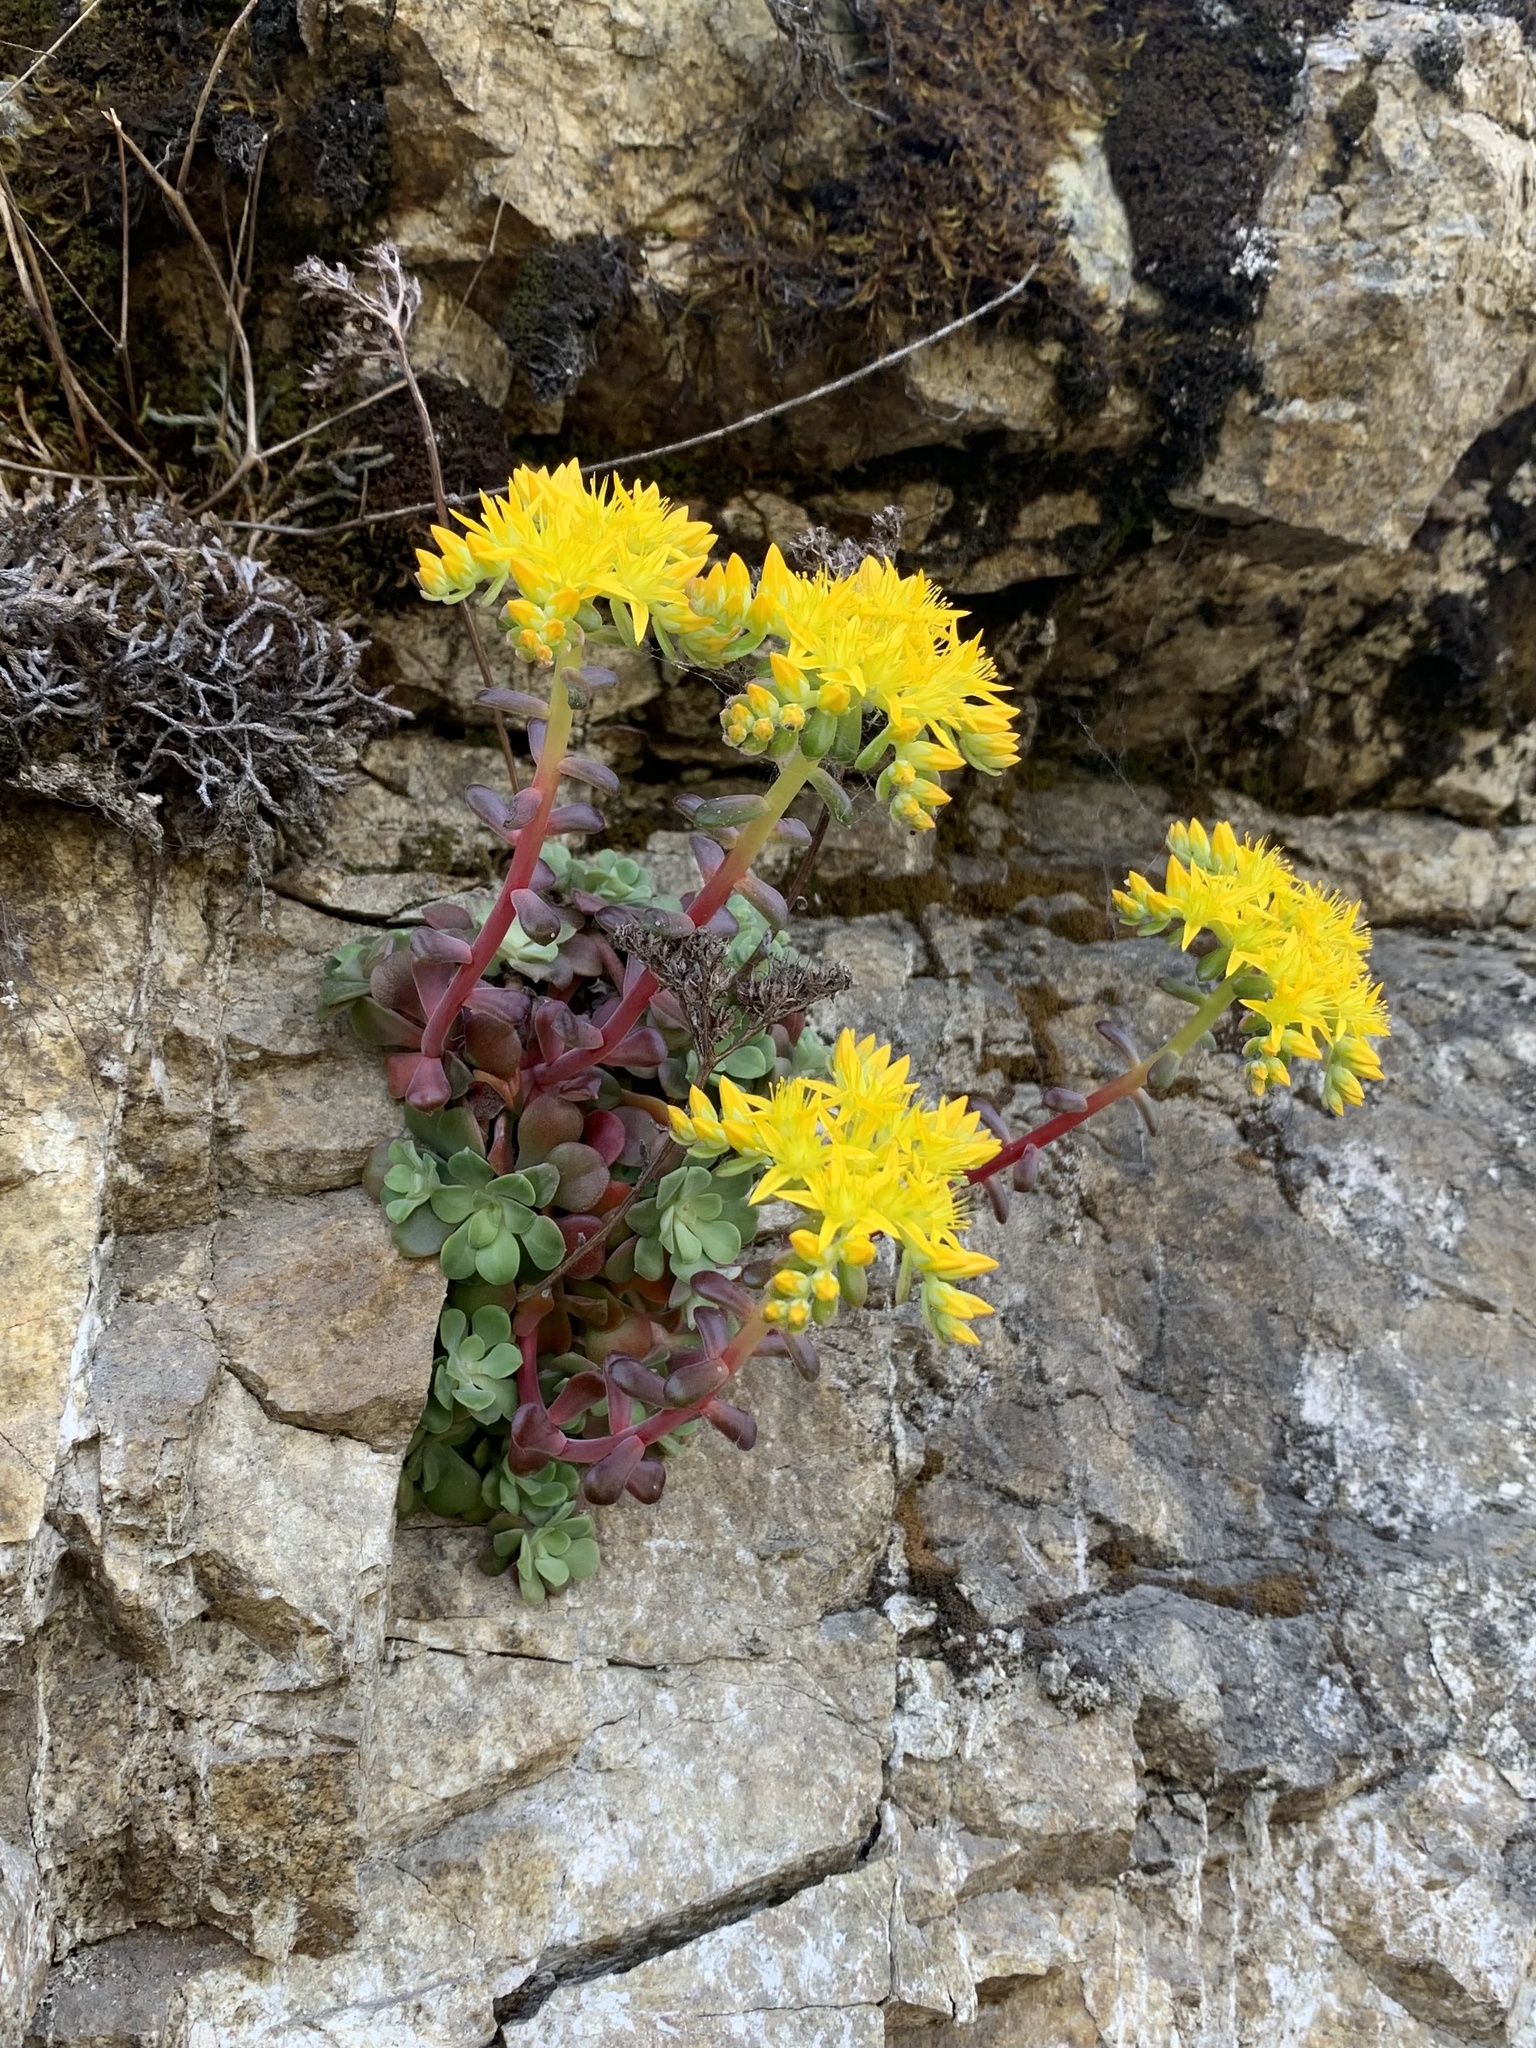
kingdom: Plantae
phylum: Tracheophyta
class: Magnoliopsida
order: Saxifragales
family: Crassulaceae
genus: Sedum
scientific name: Sedum spathulifolium
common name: Colorado stonecrop
